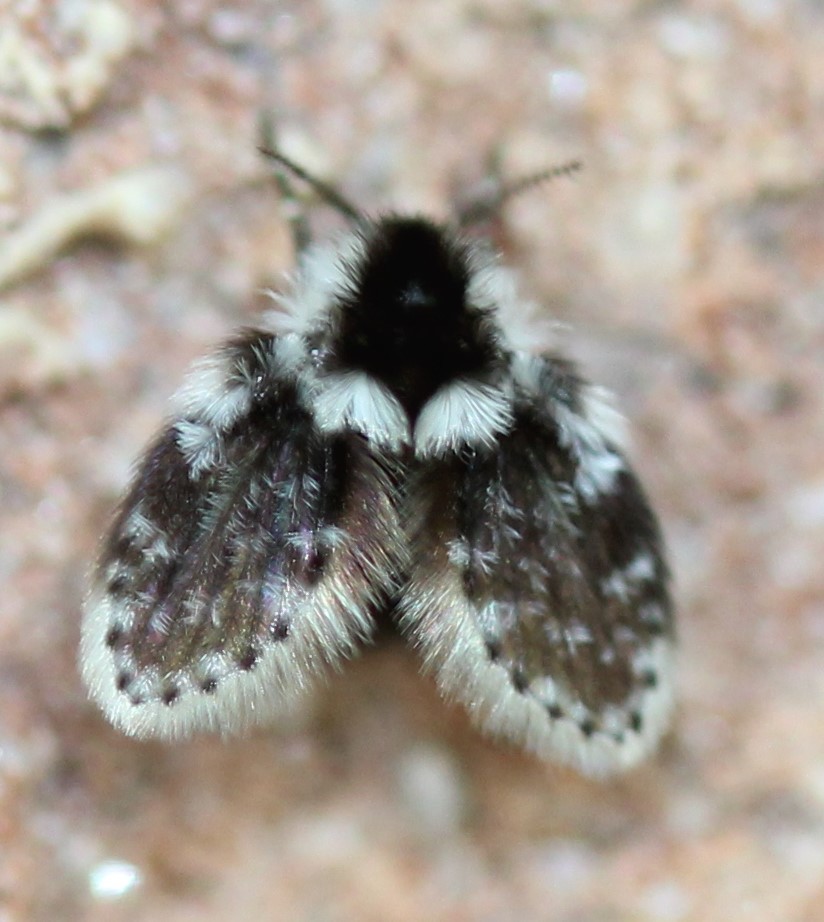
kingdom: Animalia
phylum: Arthropoda
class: Insecta
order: Diptera
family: Psychodidae
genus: Lepiseodina
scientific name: Lepiseodina
